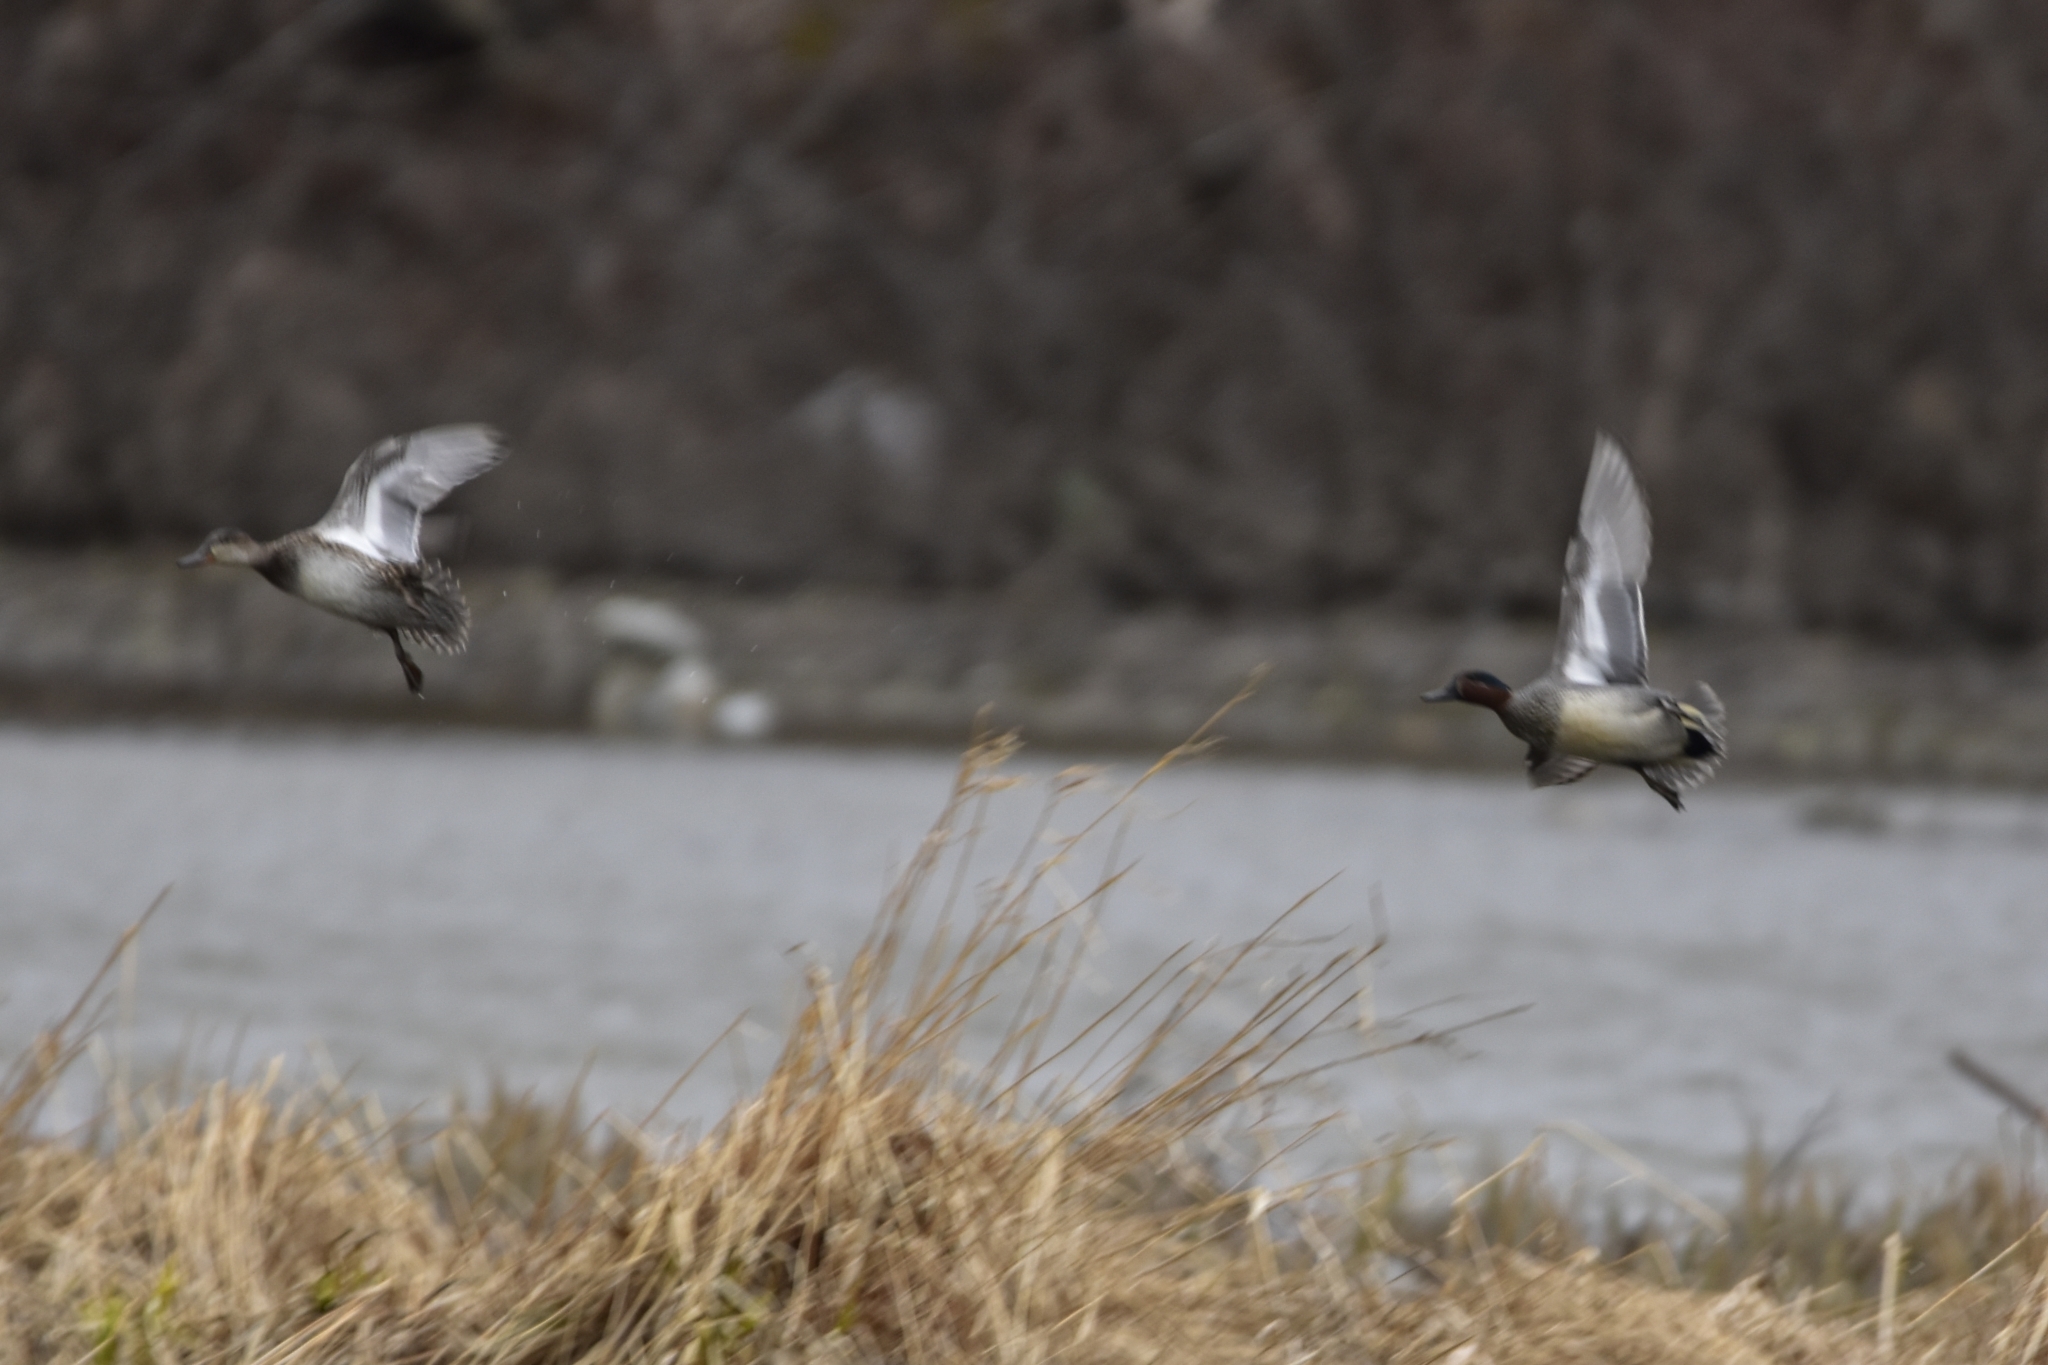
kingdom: Animalia
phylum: Chordata
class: Aves
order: Anseriformes
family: Anatidae
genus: Anas
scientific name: Anas crecca
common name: Eurasian teal
